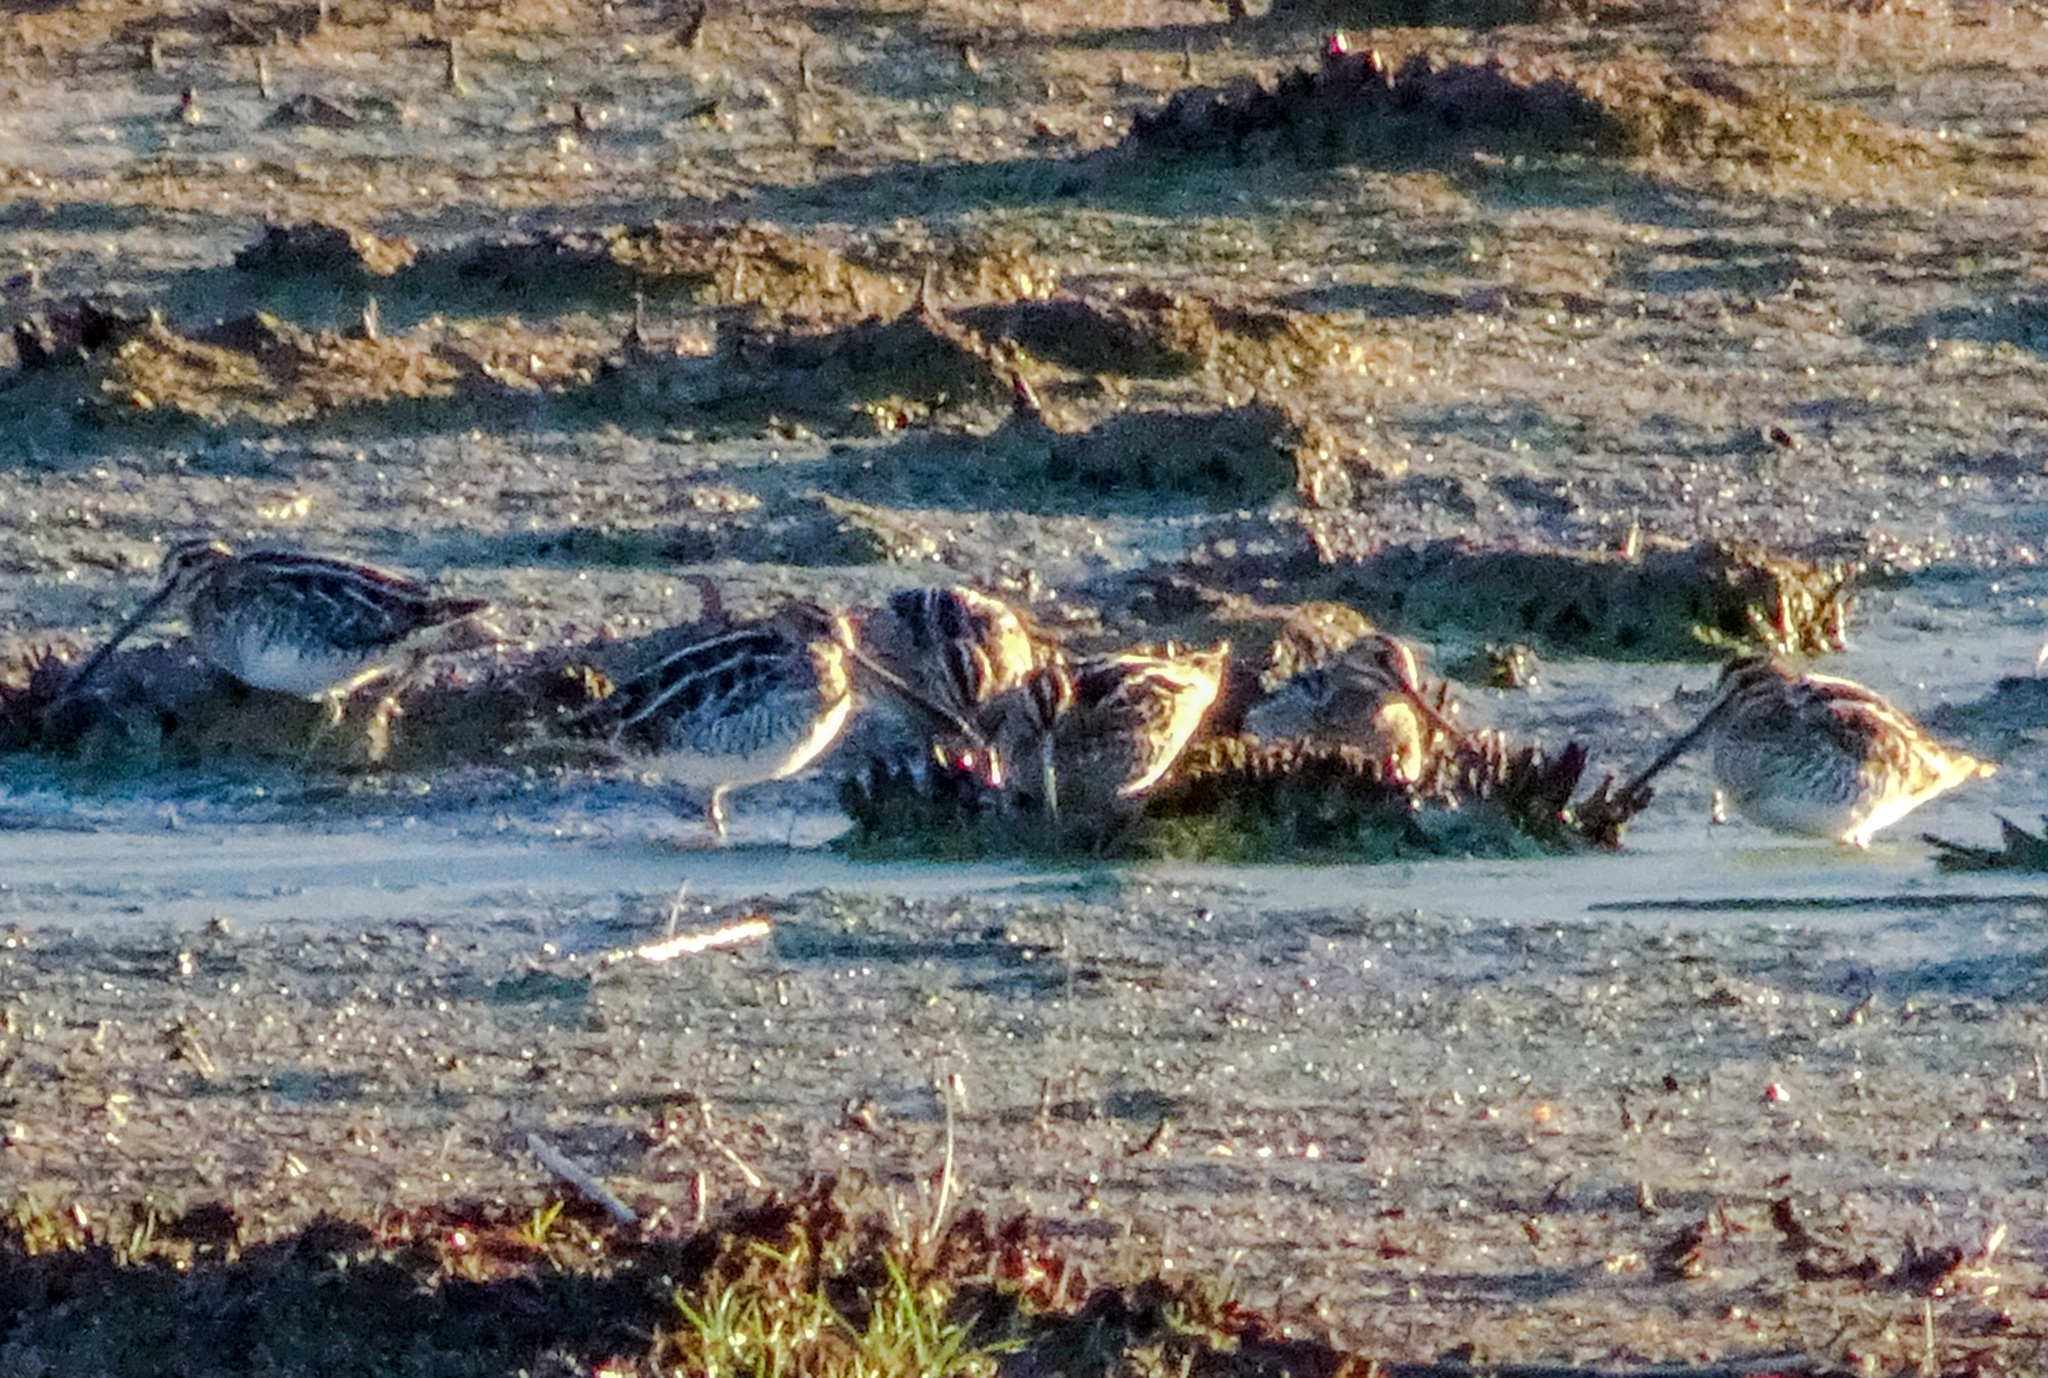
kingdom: Animalia
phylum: Chordata
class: Aves
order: Charadriiformes
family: Scolopacidae
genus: Gallinago
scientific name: Gallinago delicata
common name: Wilson's snipe
